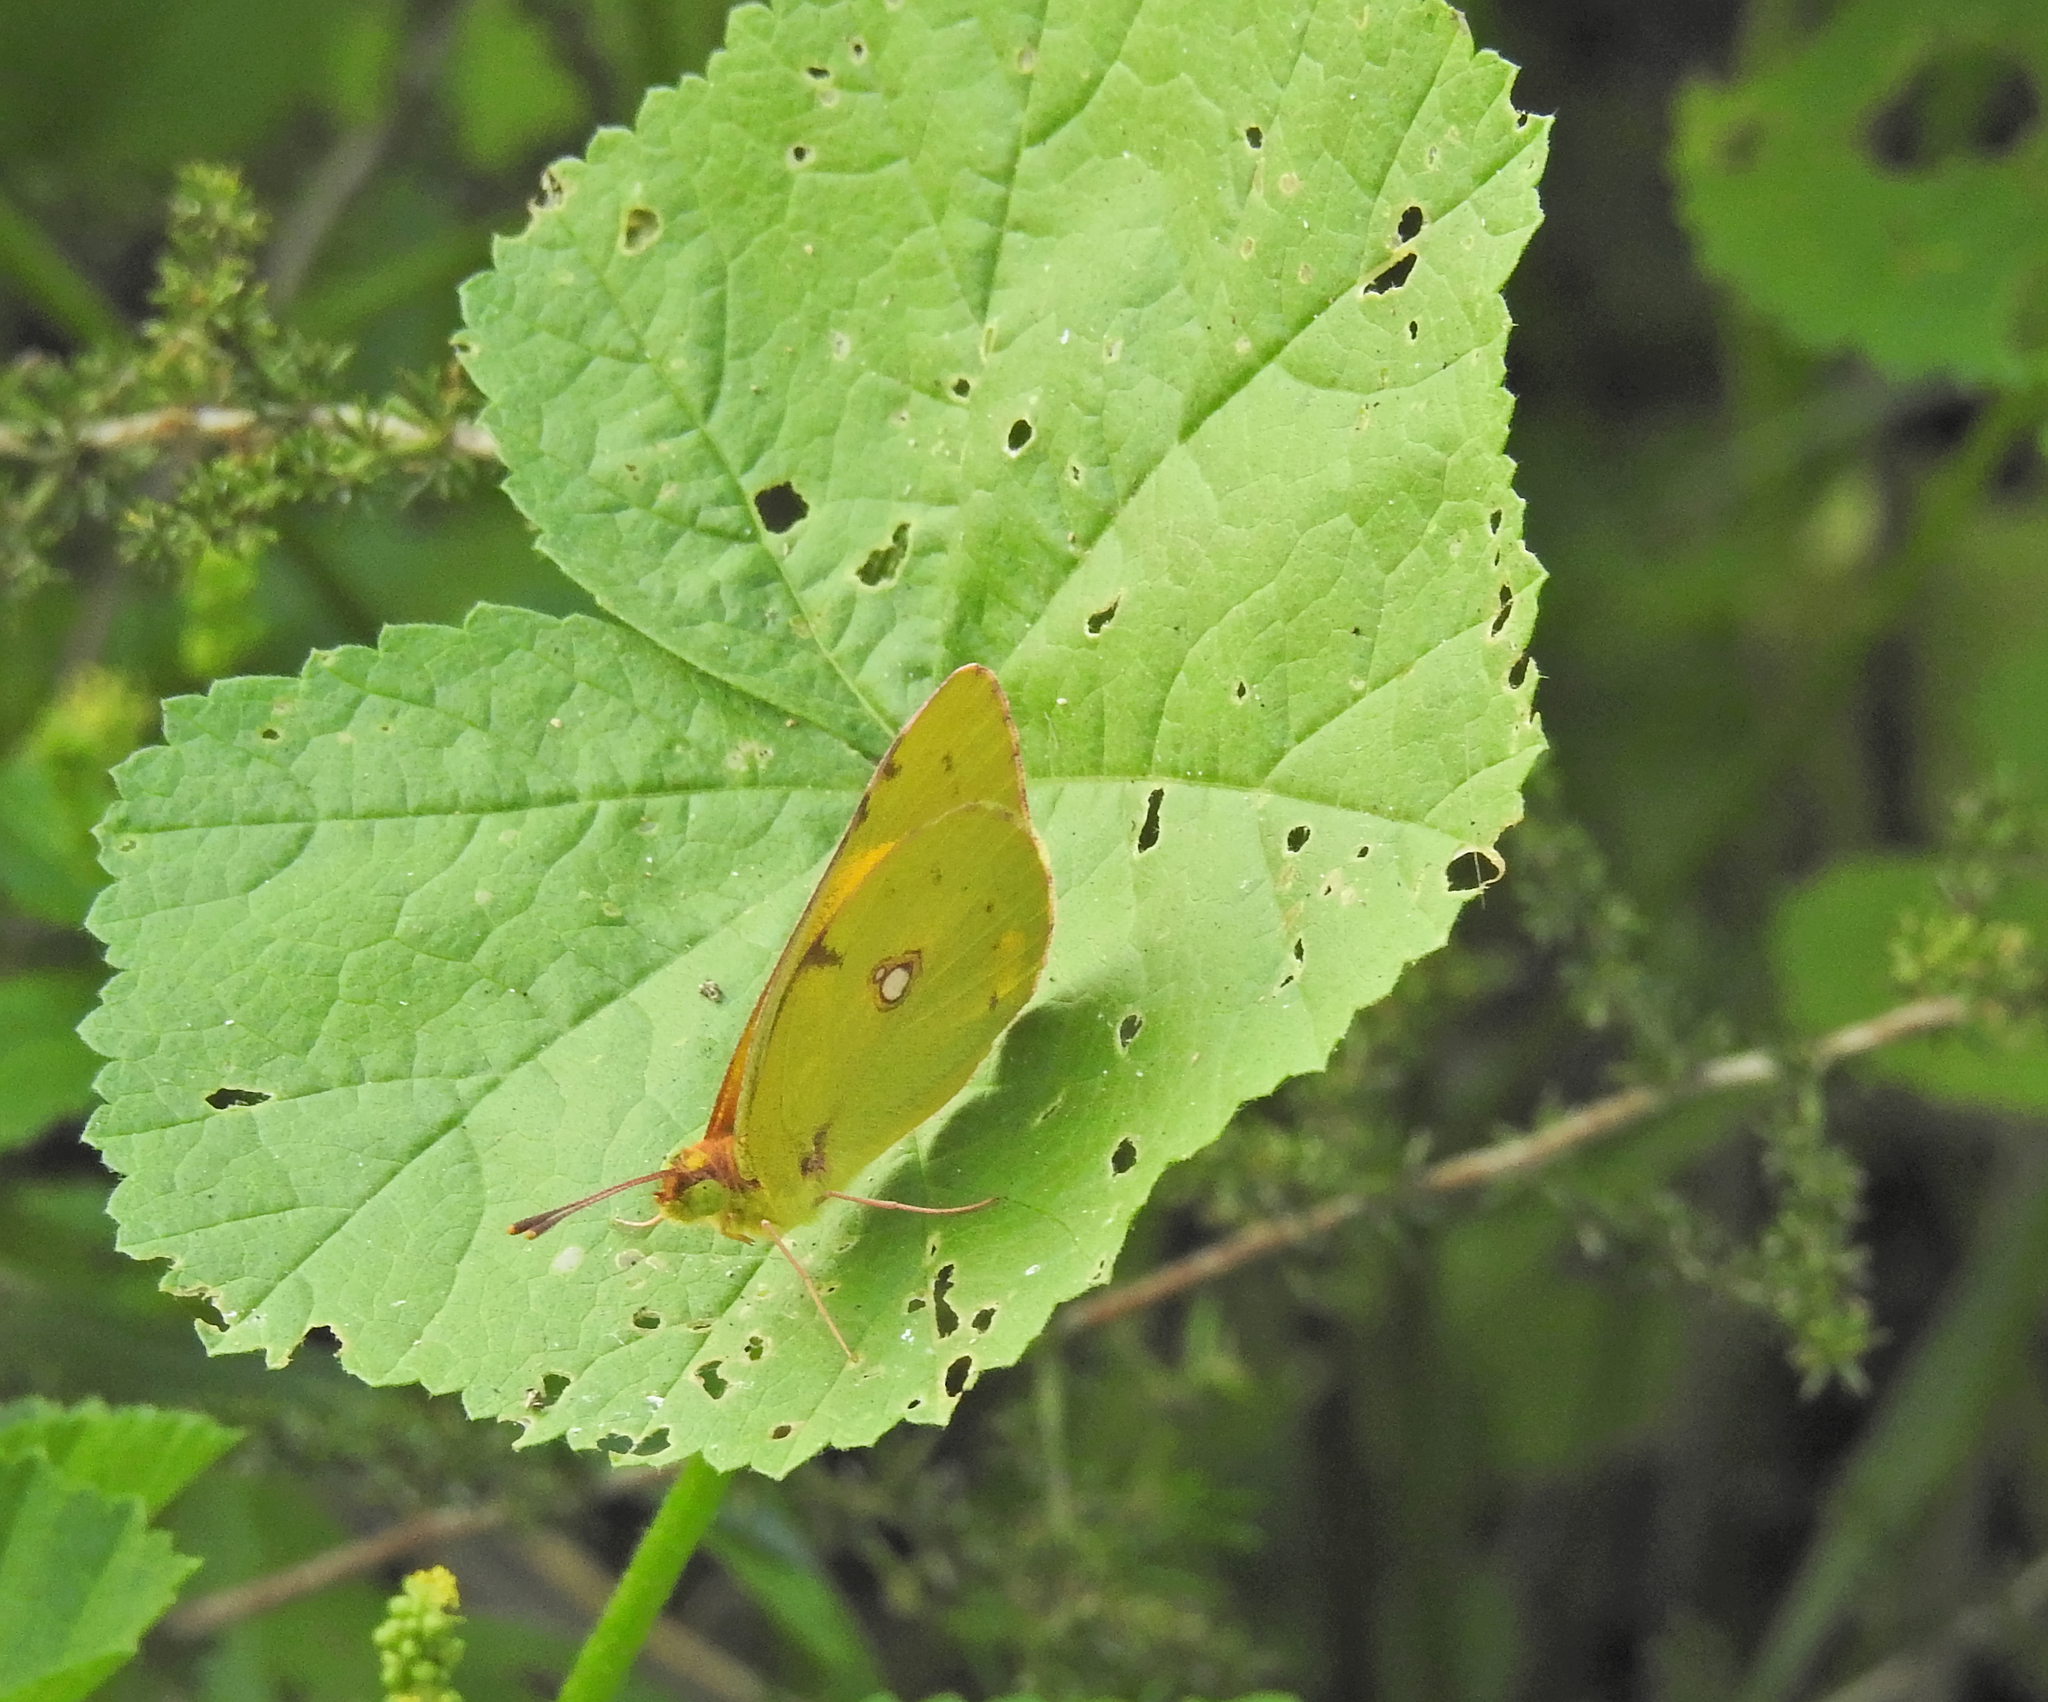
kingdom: Animalia
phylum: Arthropoda
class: Insecta
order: Lepidoptera
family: Pieridae
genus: Colias
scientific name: Colias croceus
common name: Clouded yellow
